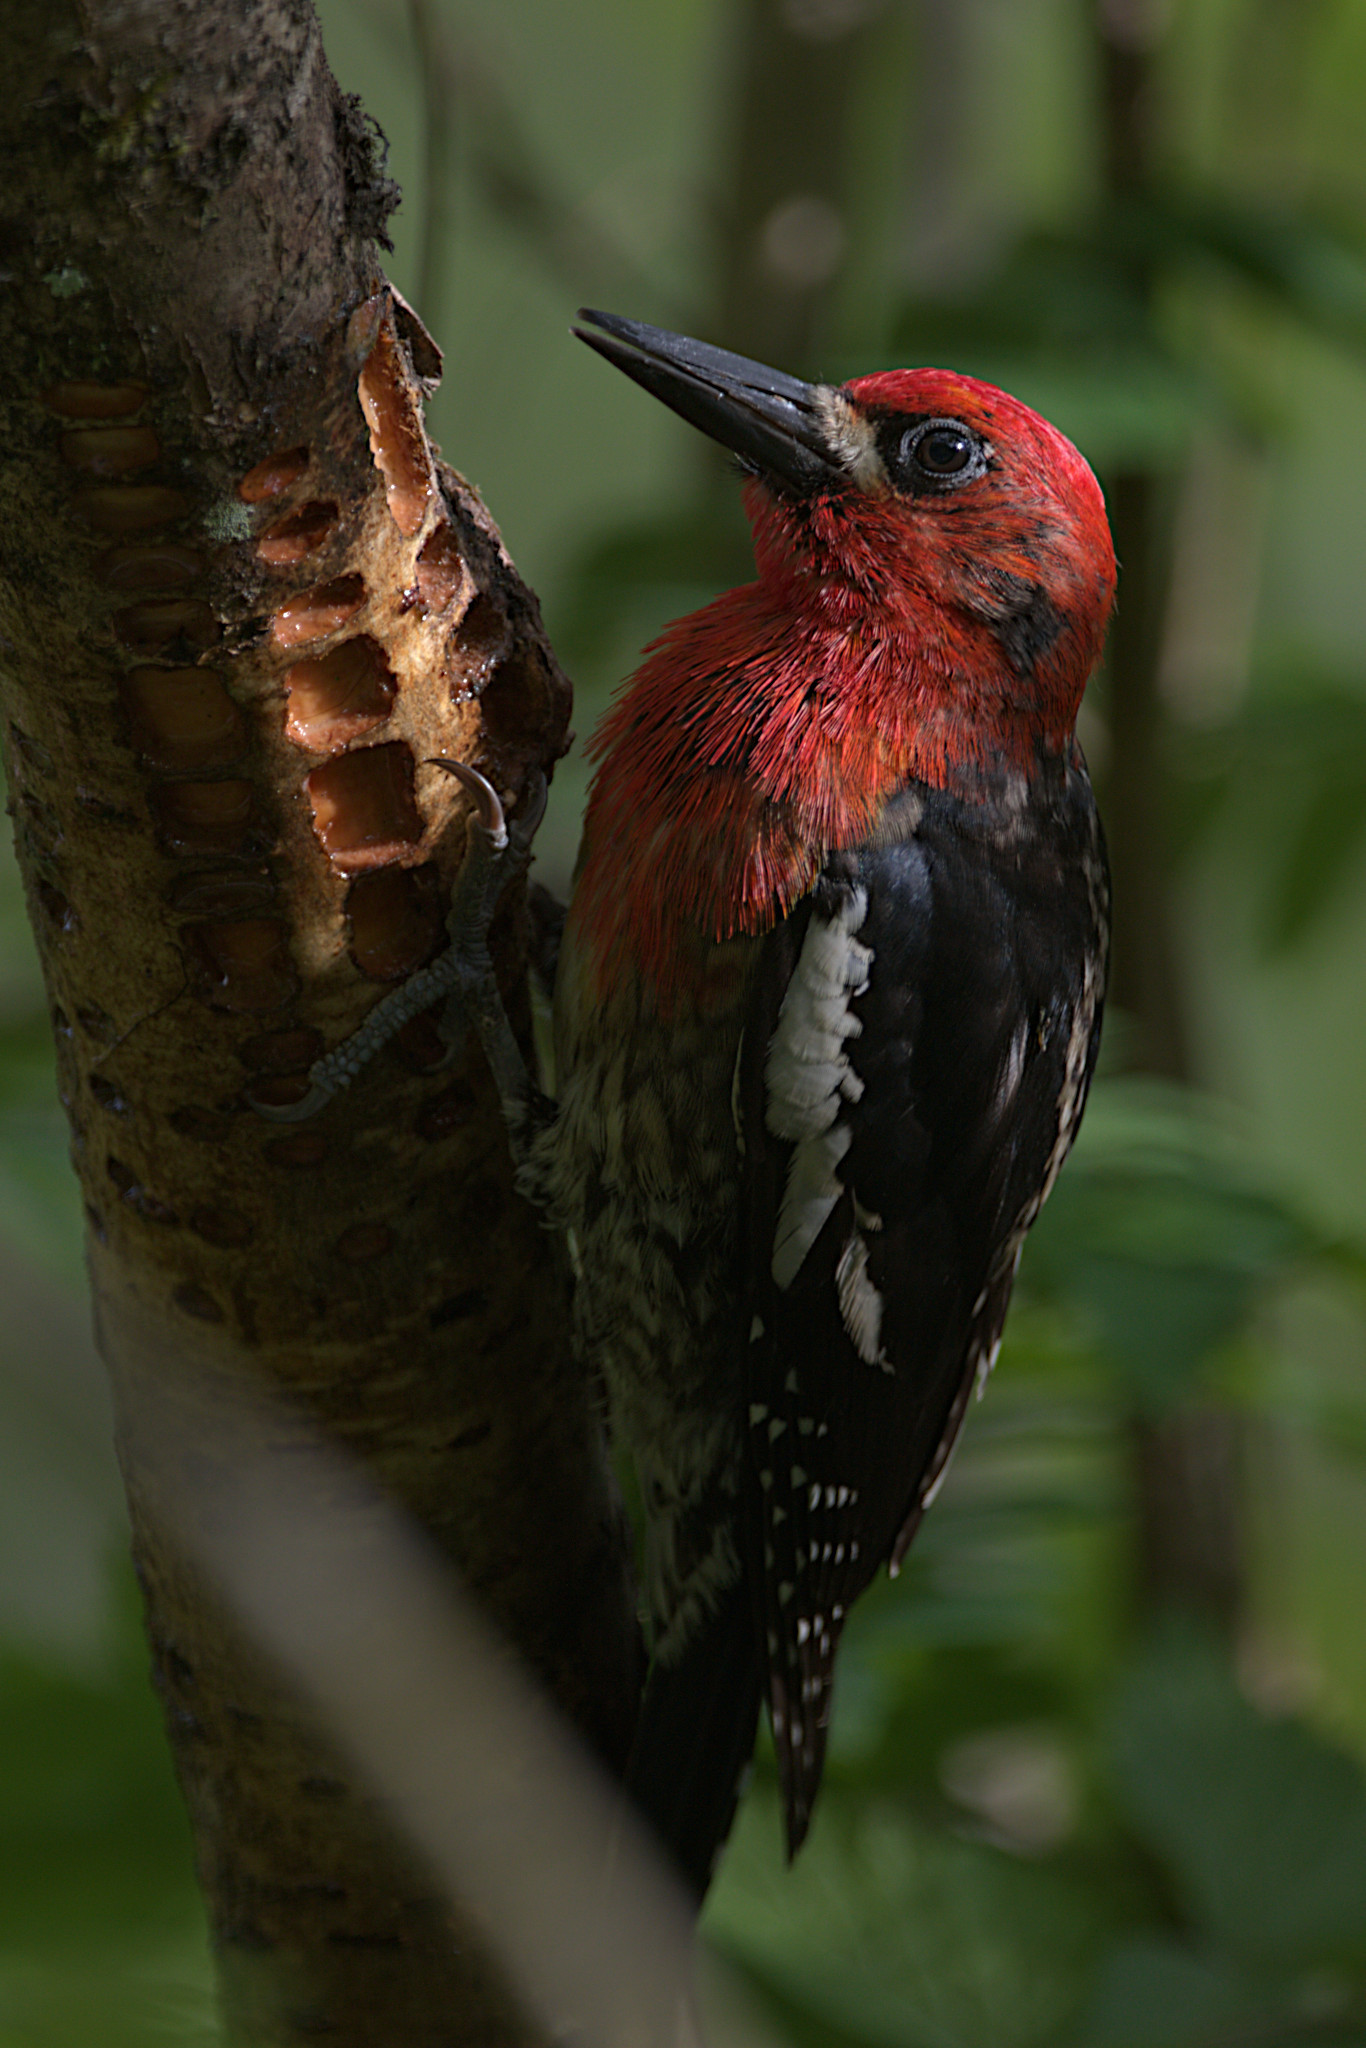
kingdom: Animalia
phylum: Chordata
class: Aves
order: Piciformes
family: Picidae
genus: Sphyrapicus
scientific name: Sphyrapicus ruber
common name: Red-breasted sapsucker
